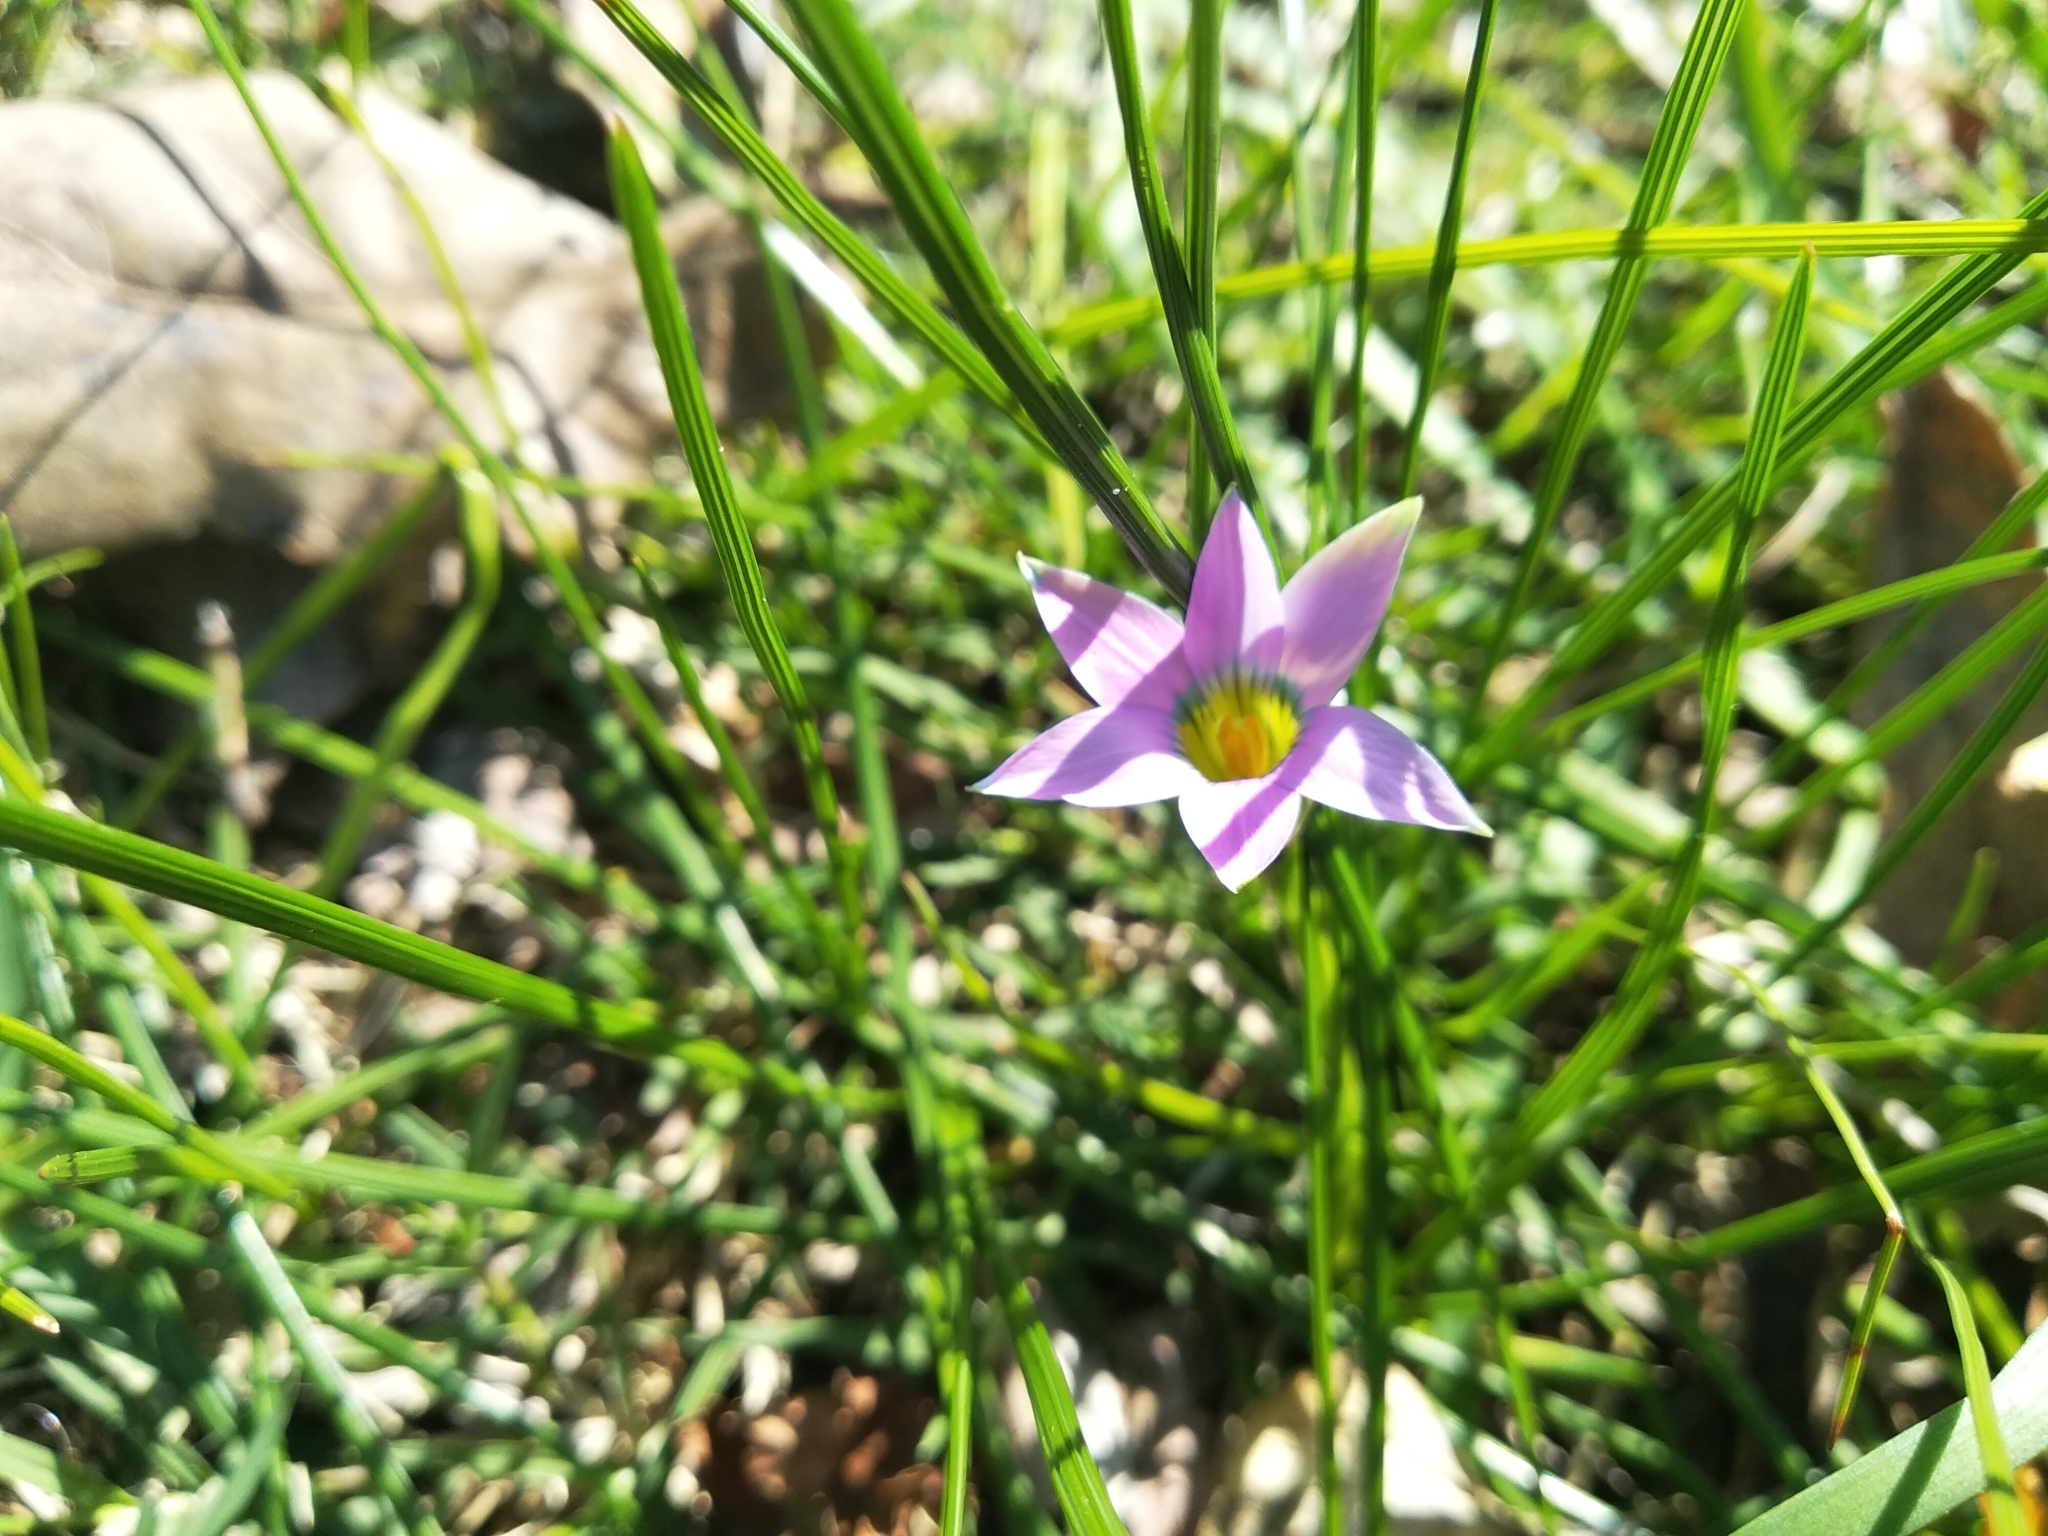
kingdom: Plantae
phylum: Tracheophyta
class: Liliopsida
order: Asparagales
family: Iridaceae
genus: Romulea
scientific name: Romulea rosea
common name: Oniongrass
